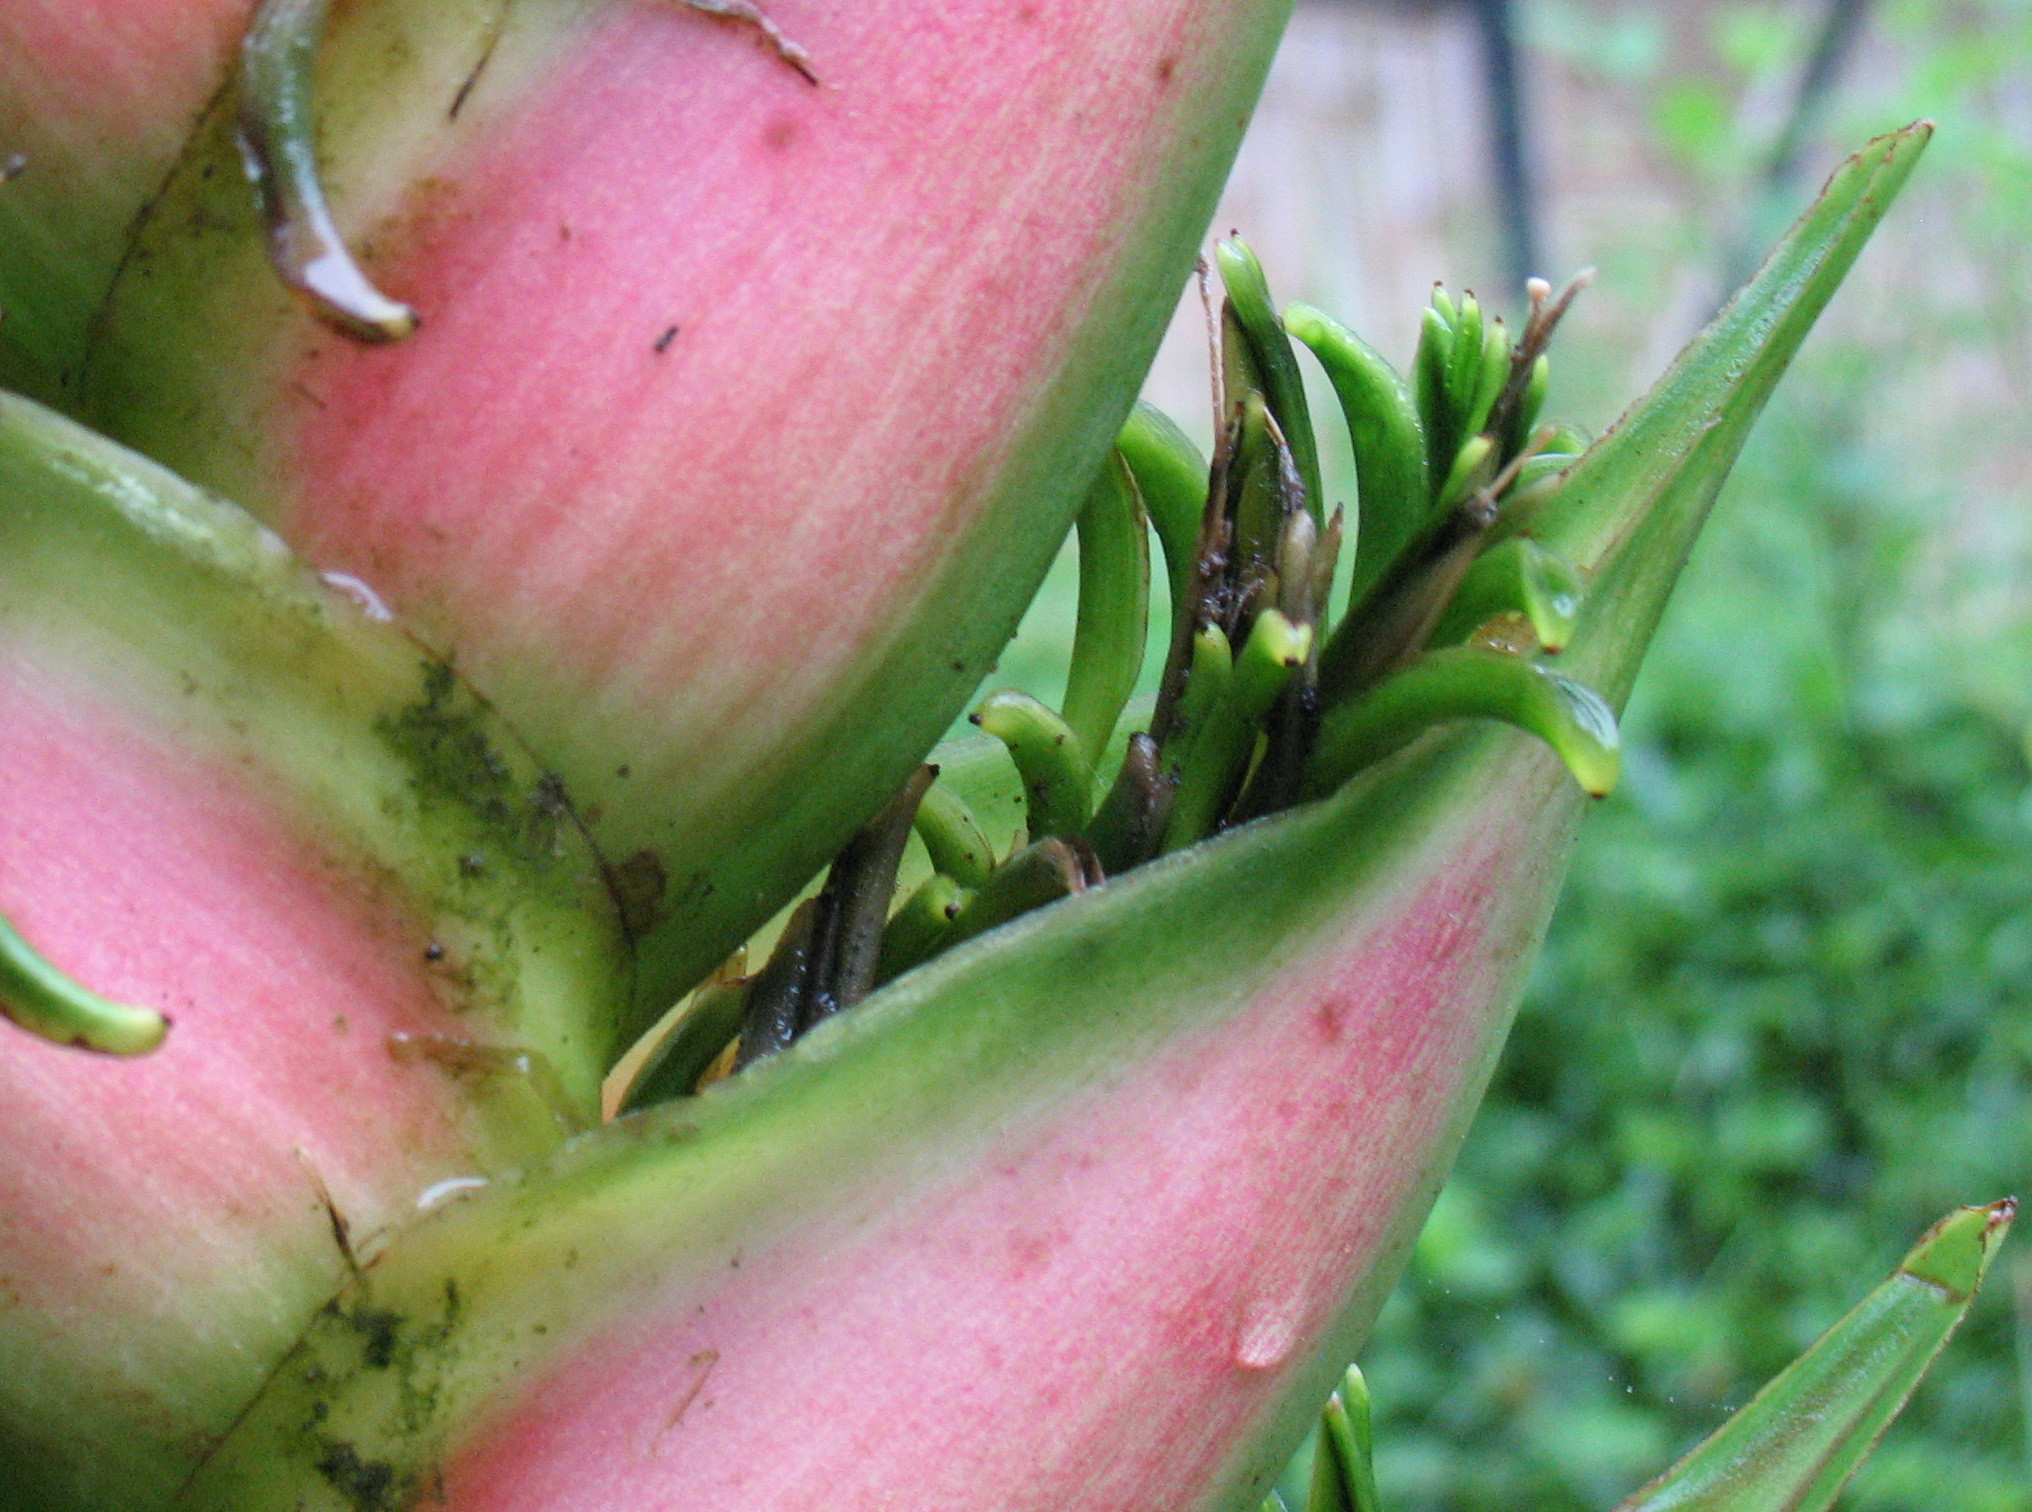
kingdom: Plantae
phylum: Tracheophyta
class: Liliopsida
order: Zingiberales
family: Heliconiaceae
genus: Heliconia
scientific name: Heliconia bihai
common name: Macaw flower
